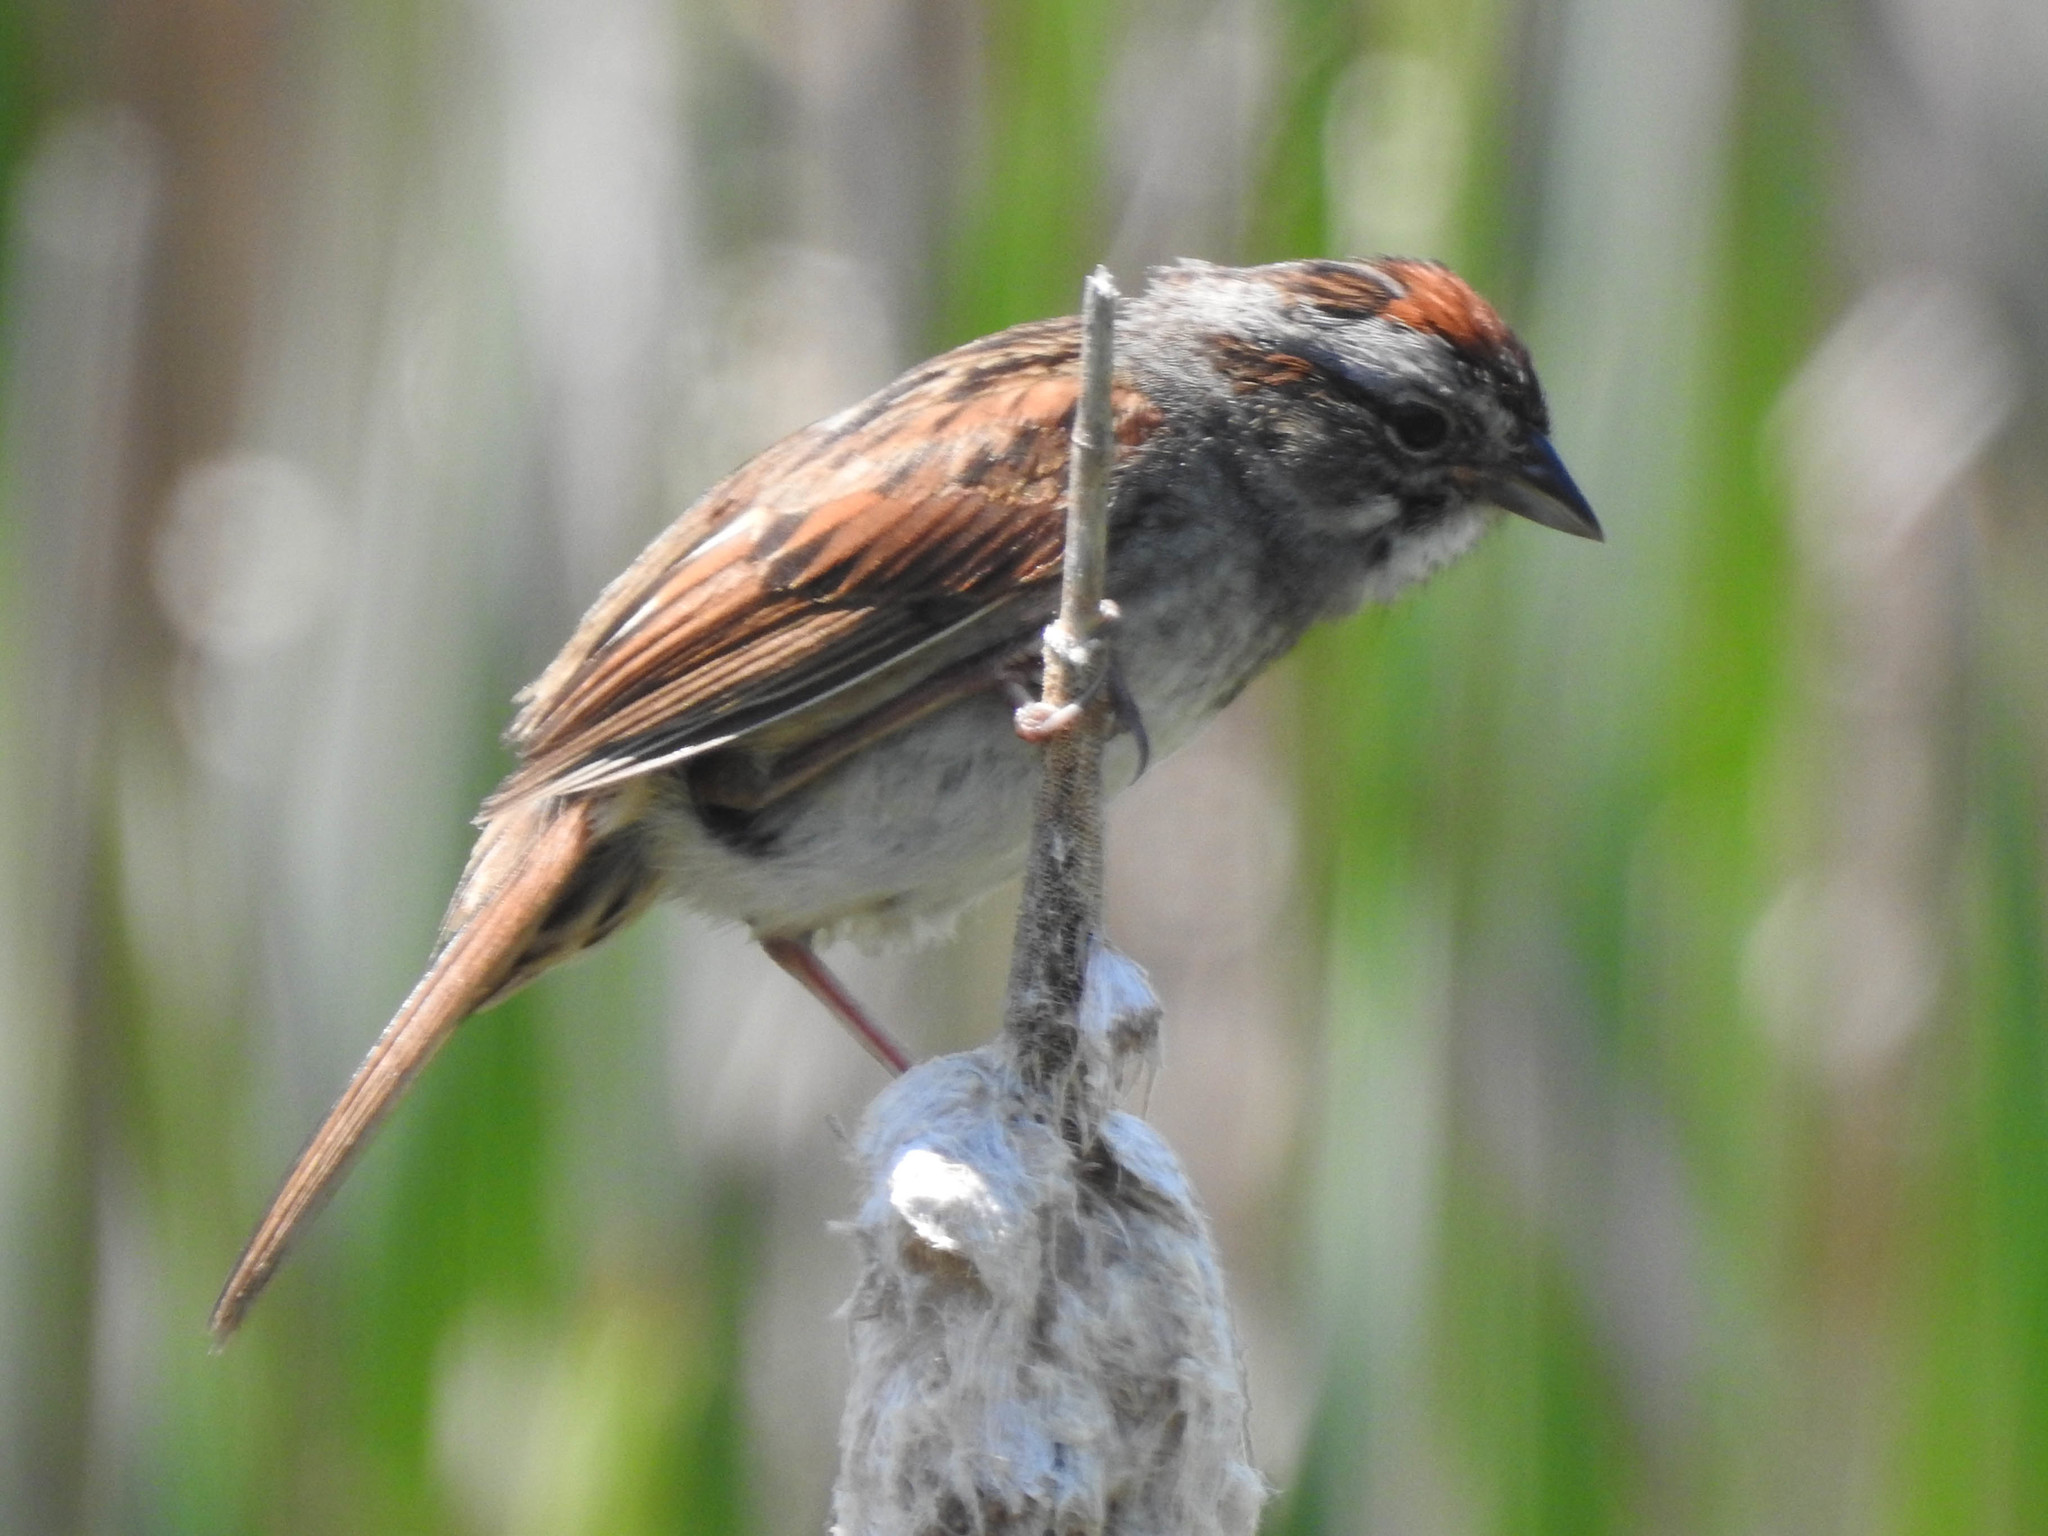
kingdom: Animalia
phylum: Chordata
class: Aves
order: Passeriformes
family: Passerellidae
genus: Melospiza
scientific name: Melospiza georgiana
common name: Swamp sparrow
